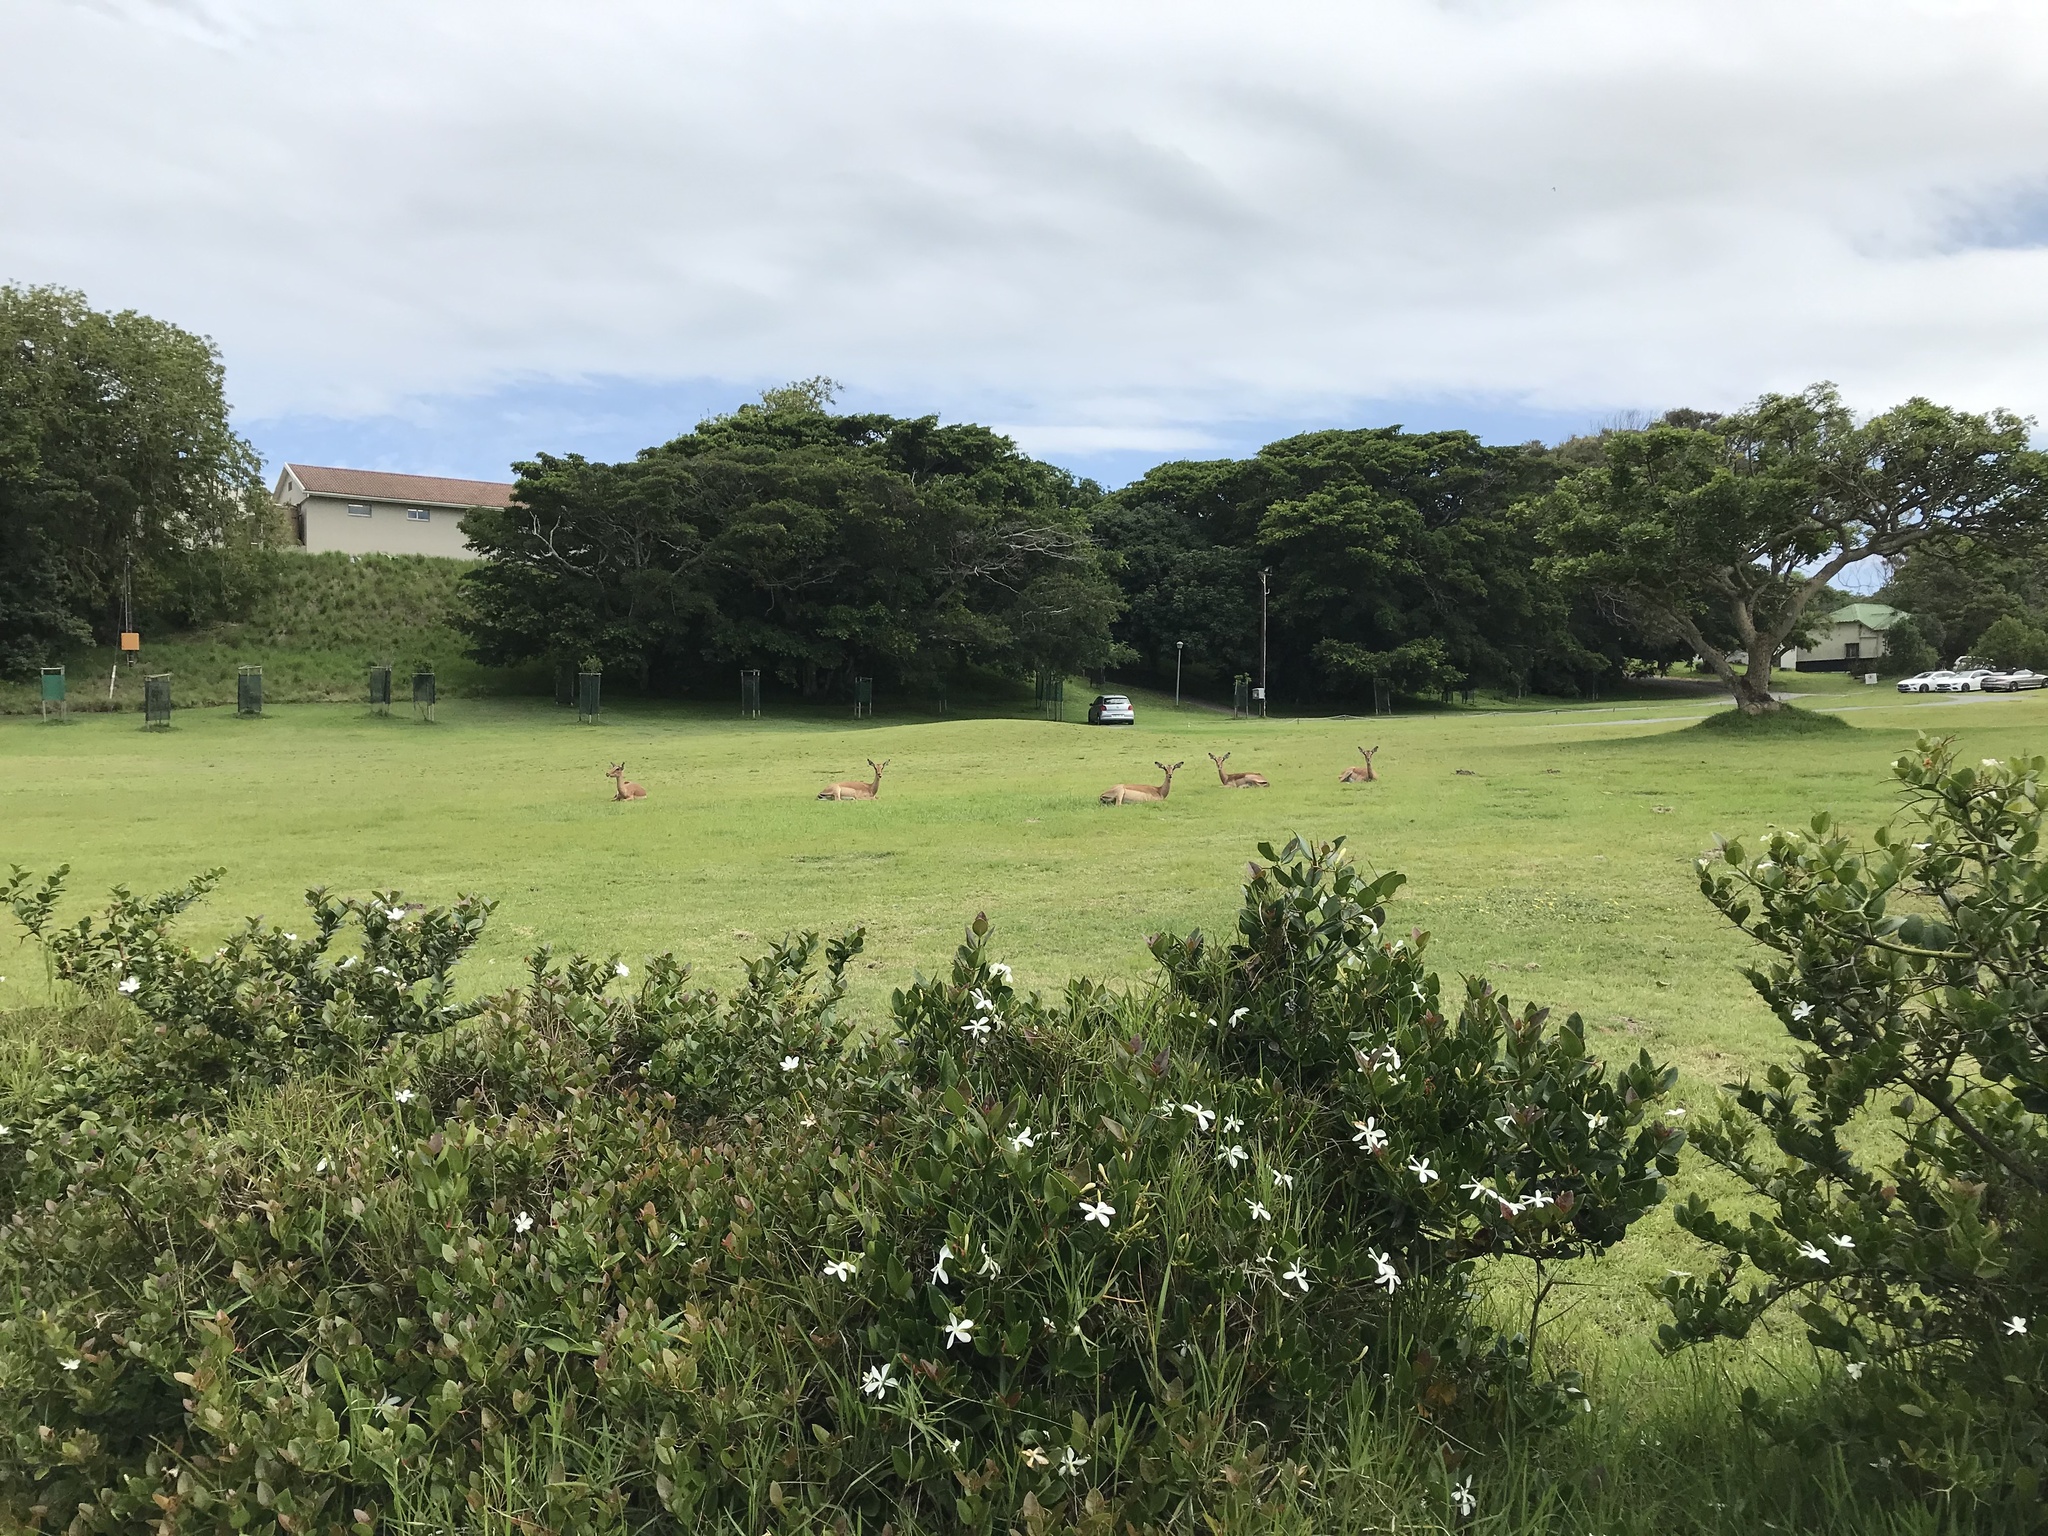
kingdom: Animalia
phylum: Chordata
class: Mammalia
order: Artiodactyla
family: Bovidae
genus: Aepyceros
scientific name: Aepyceros melampus
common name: Impala
